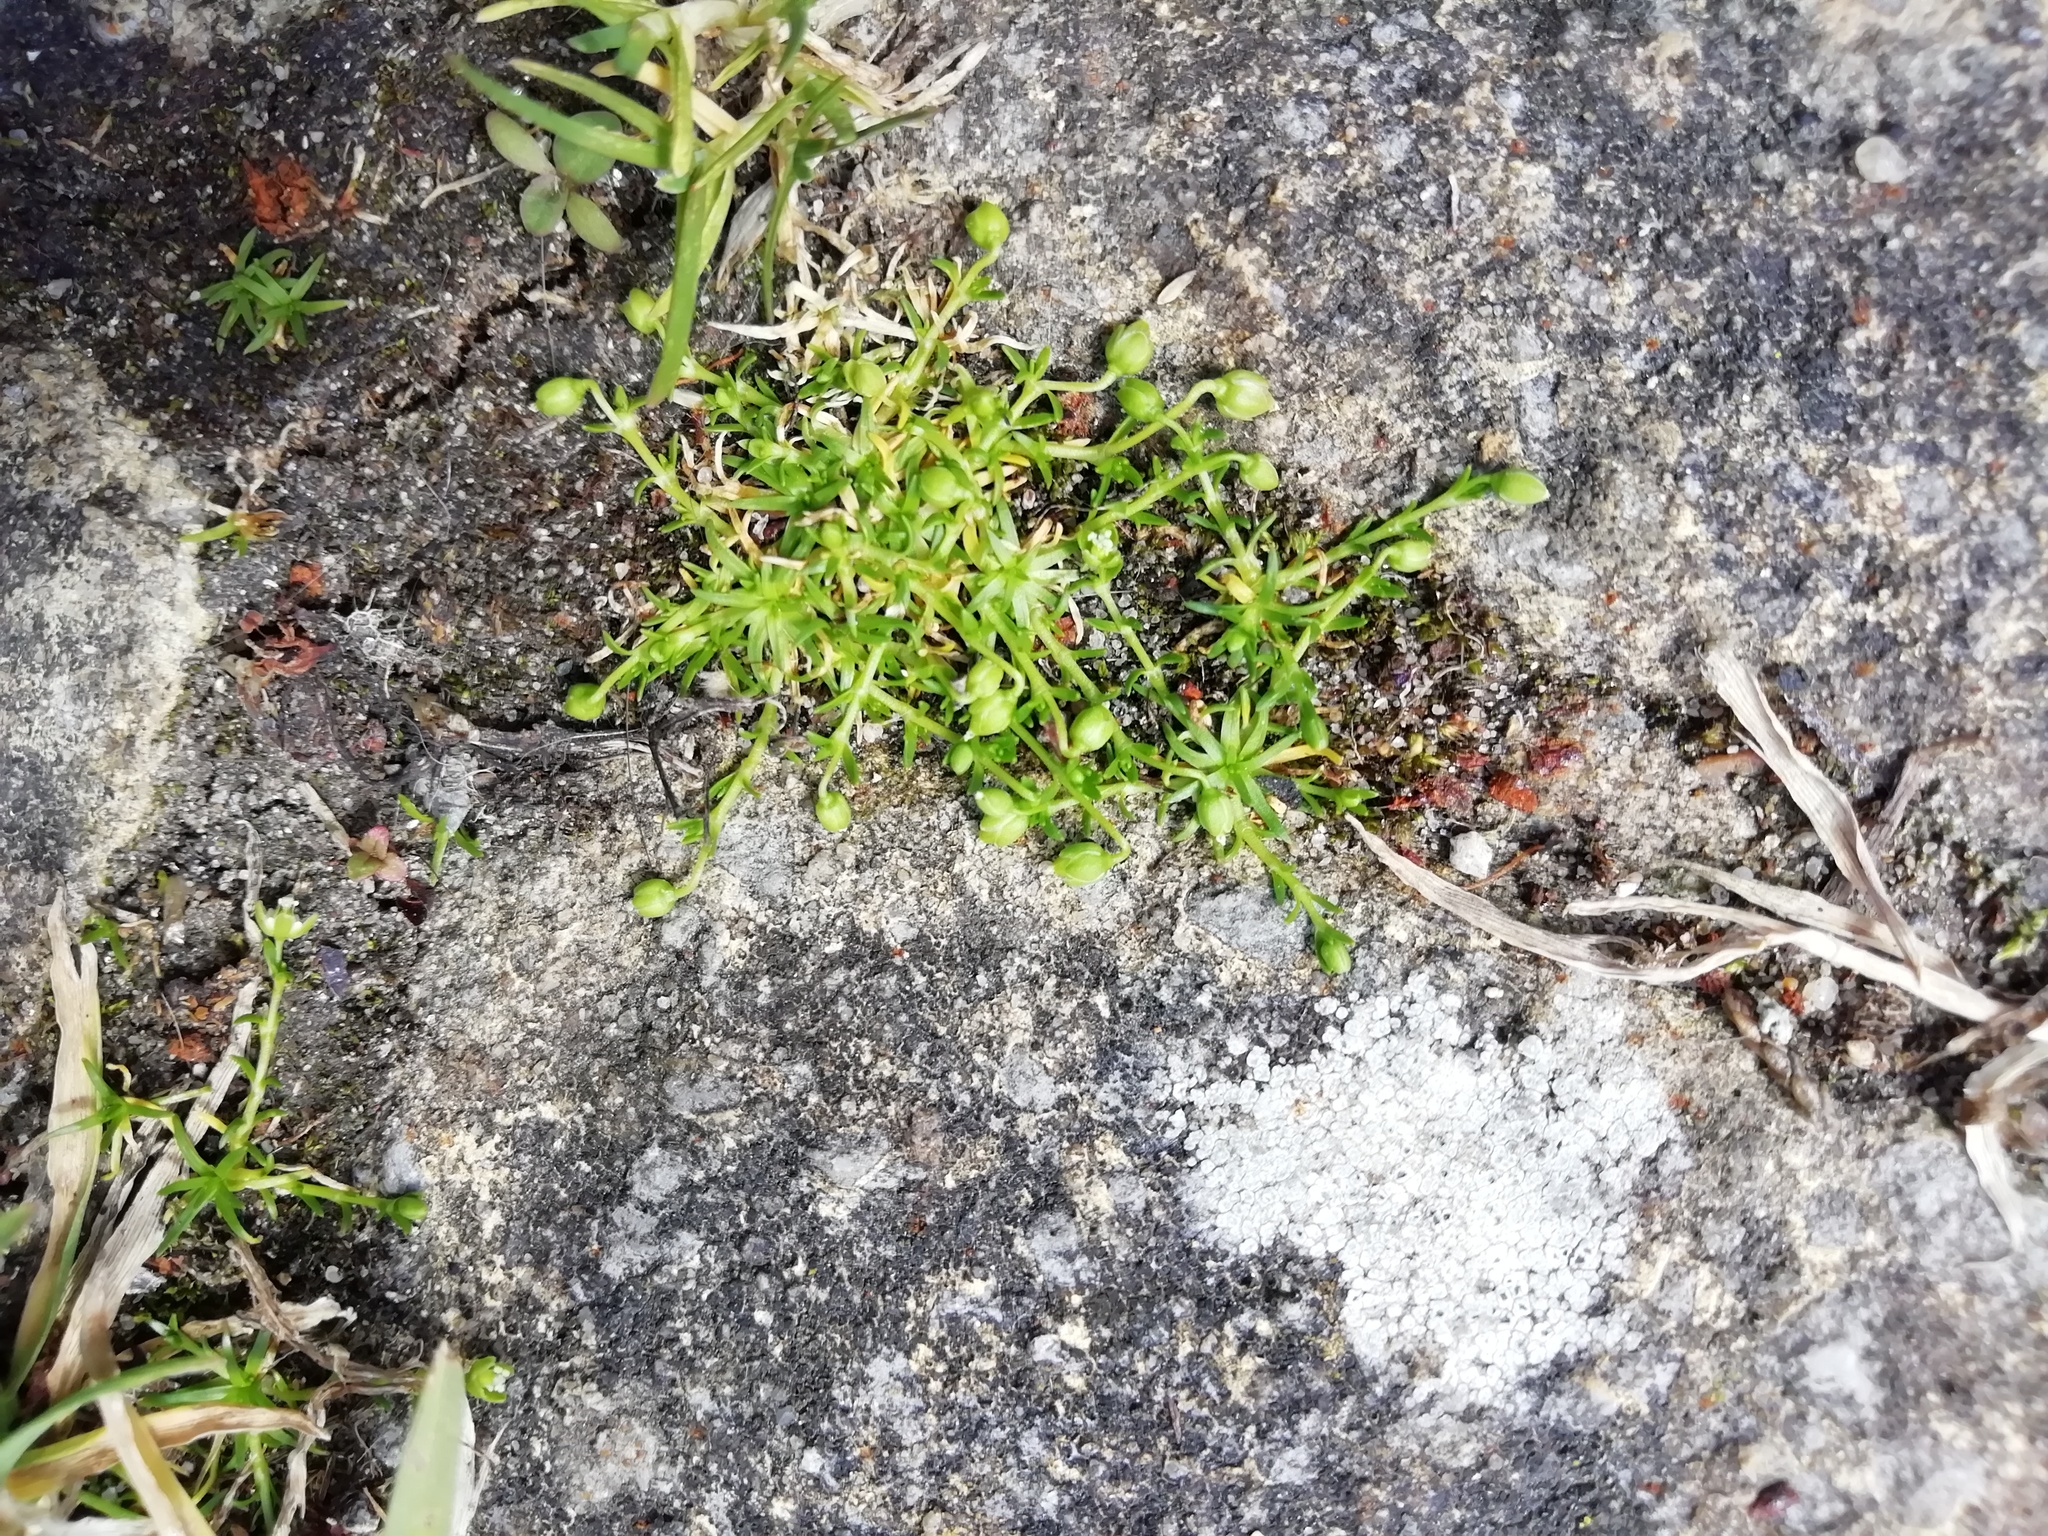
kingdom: Plantae
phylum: Tracheophyta
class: Magnoliopsida
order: Caryophyllales
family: Caryophyllaceae
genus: Sagina
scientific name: Sagina procumbens
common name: Procumbent pearlwort
